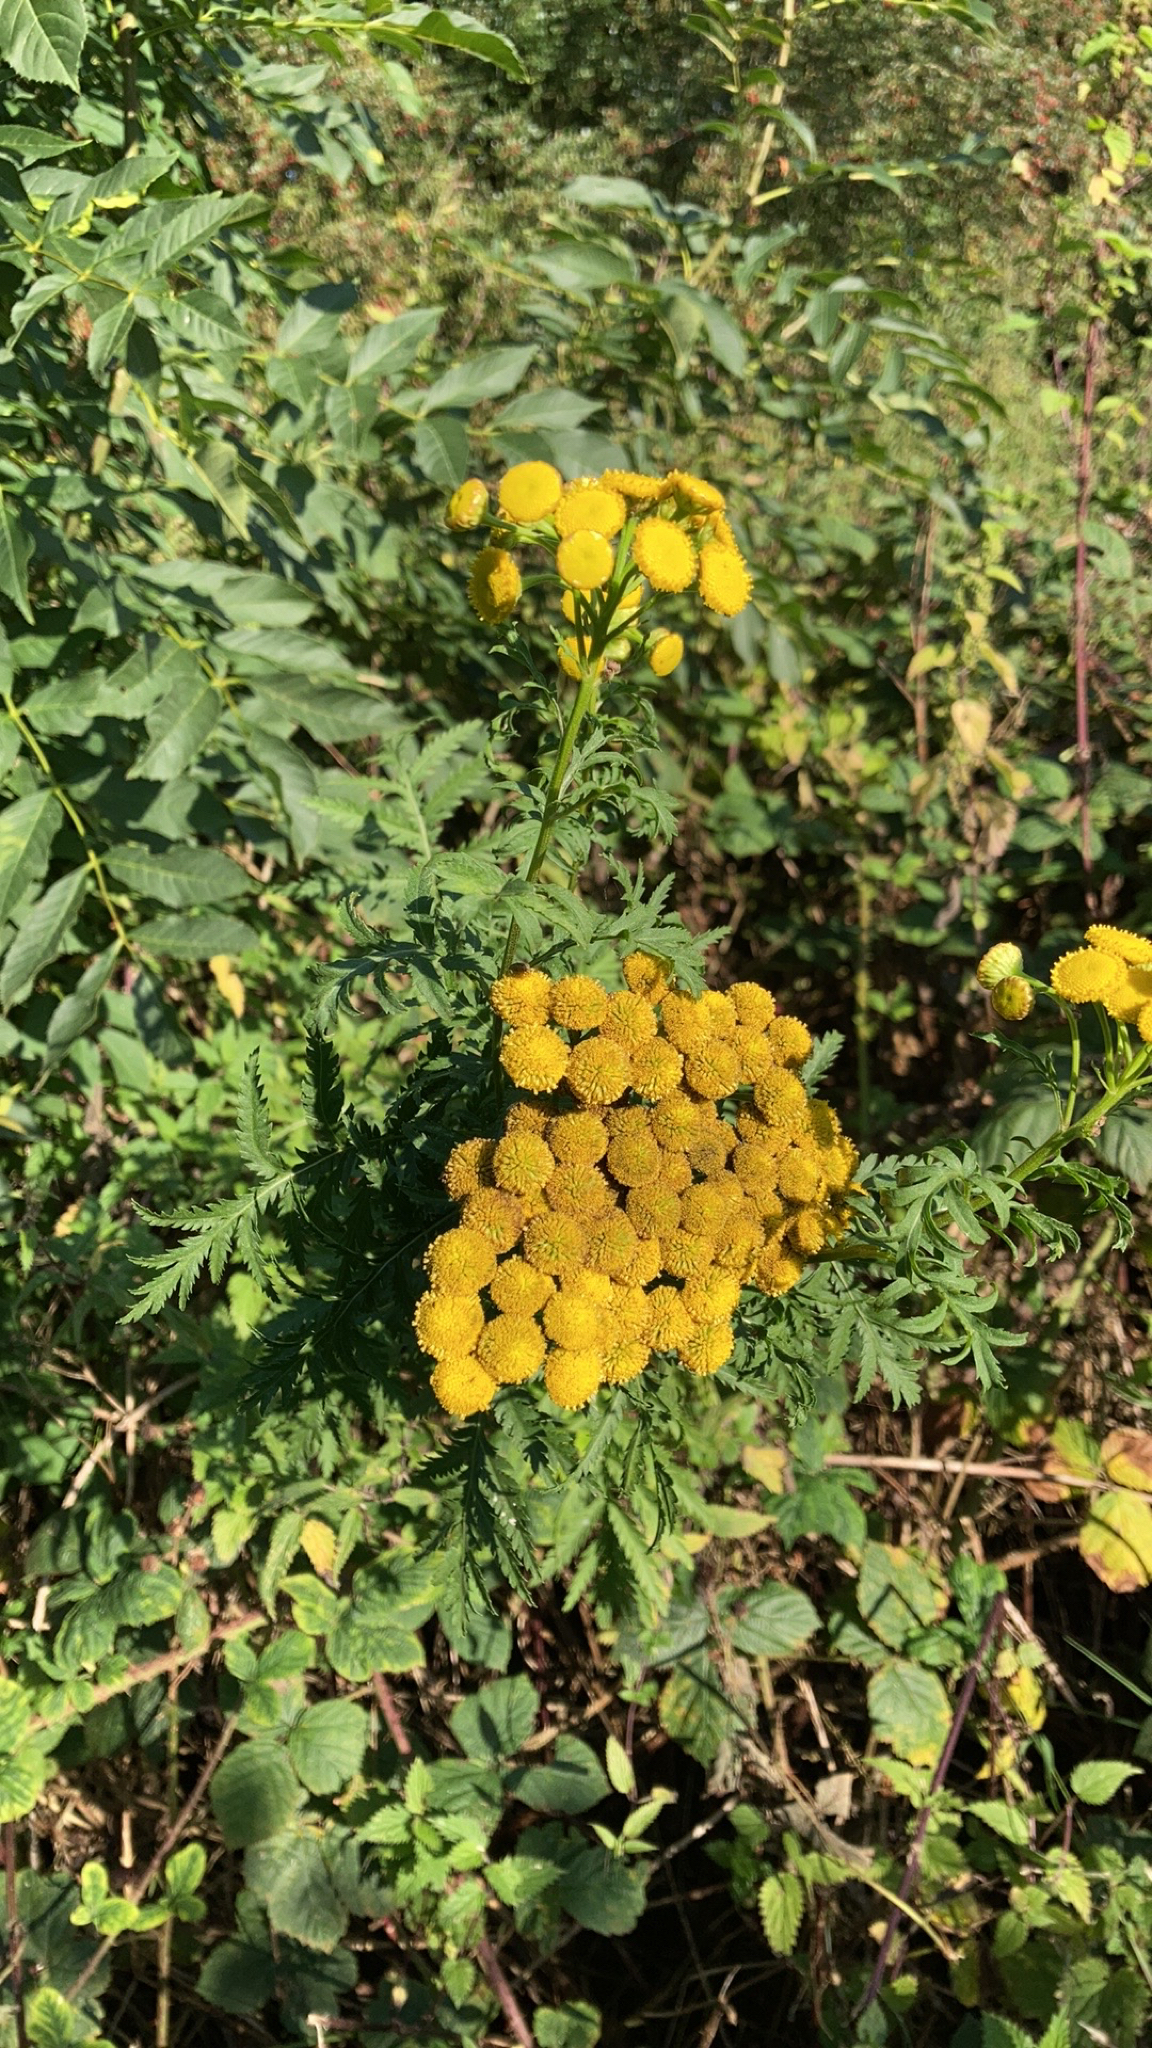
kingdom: Plantae
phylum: Tracheophyta
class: Magnoliopsida
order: Asterales
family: Asteraceae
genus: Tanacetum
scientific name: Tanacetum vulgare
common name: Common tansy
